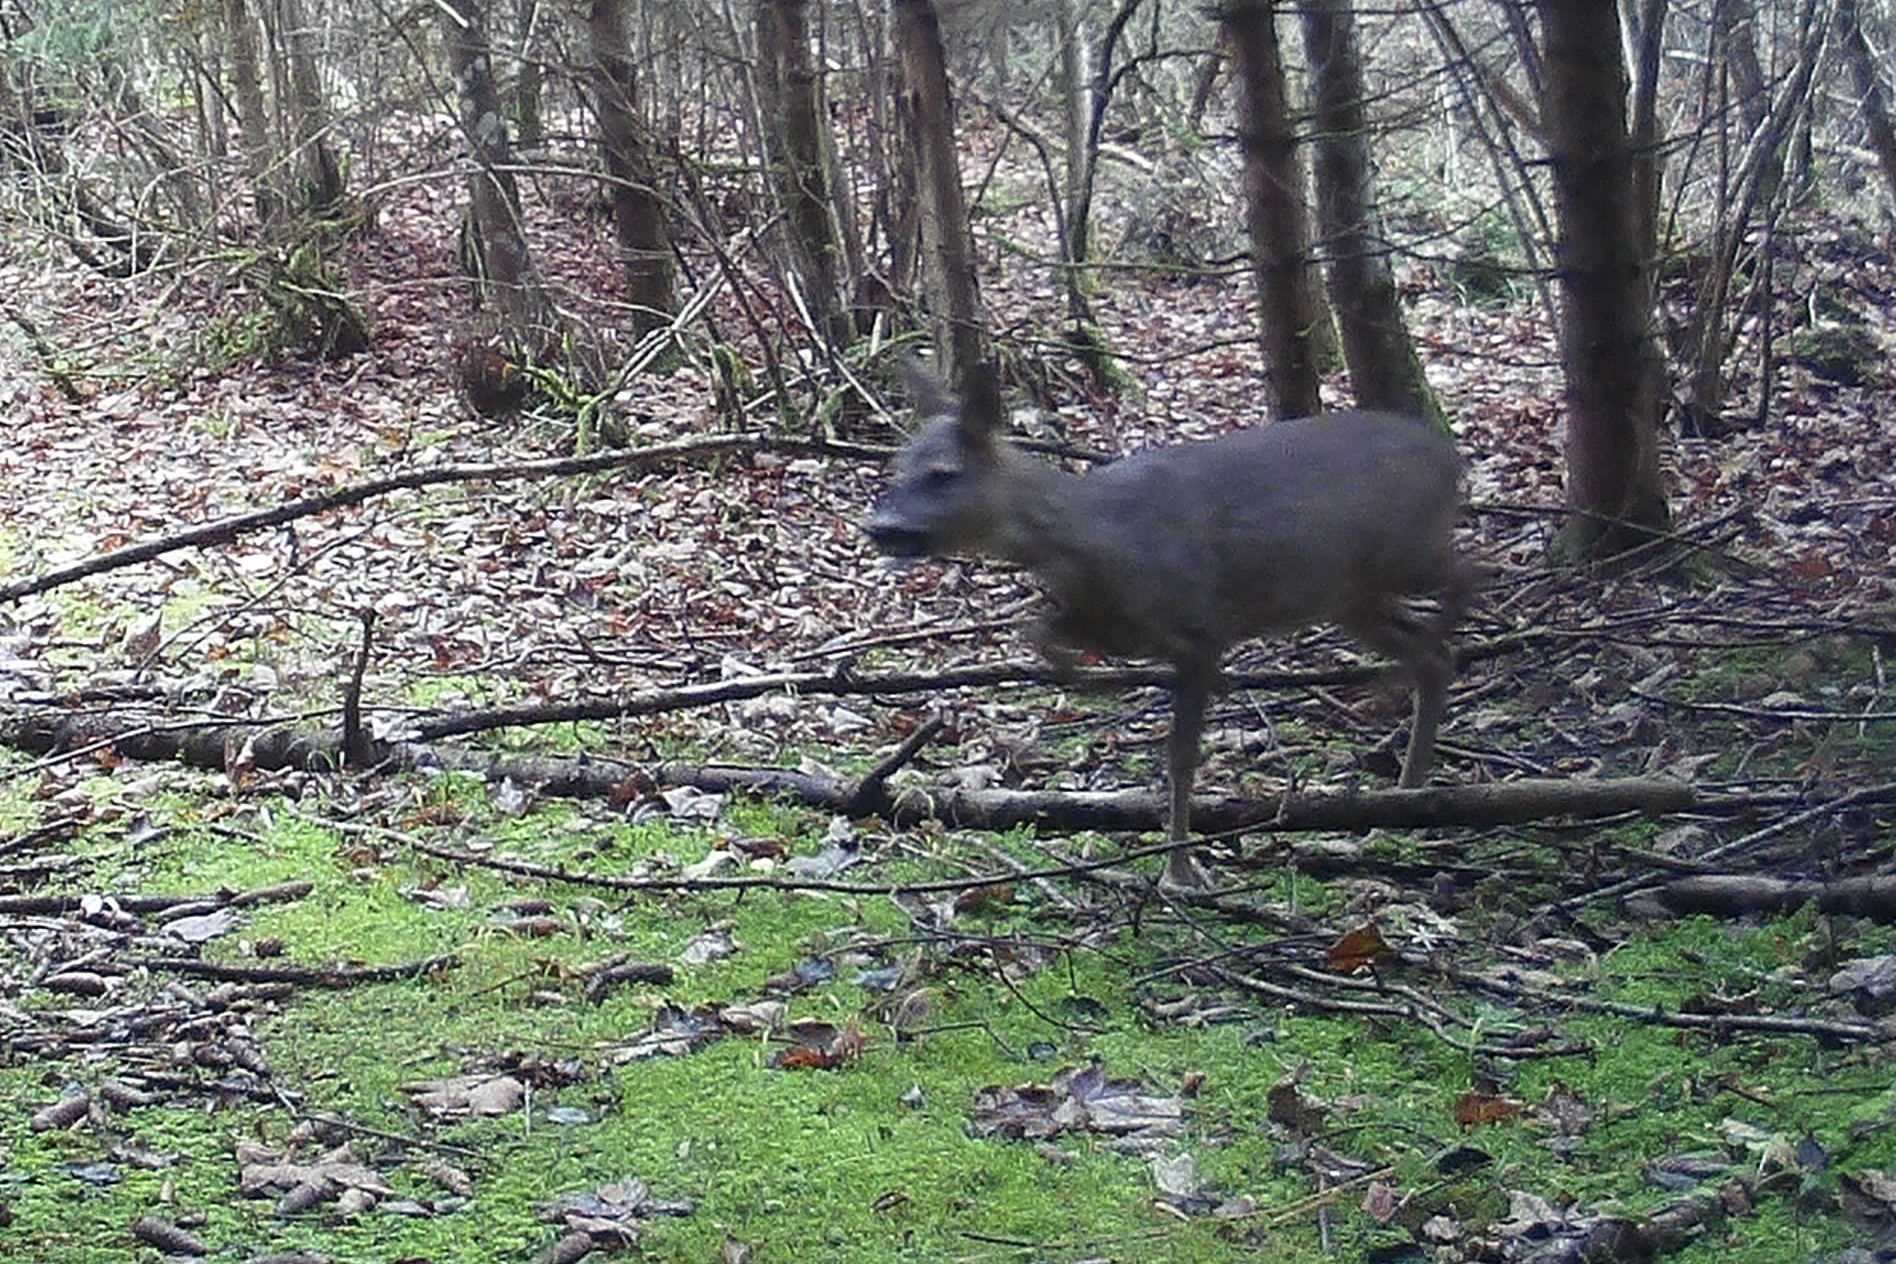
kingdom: Animalia
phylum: Chordata
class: Mammalia
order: Artiodactyla
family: Cervidae
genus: Capreolus
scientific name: Capreolus capreolus
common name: Western roe deer
